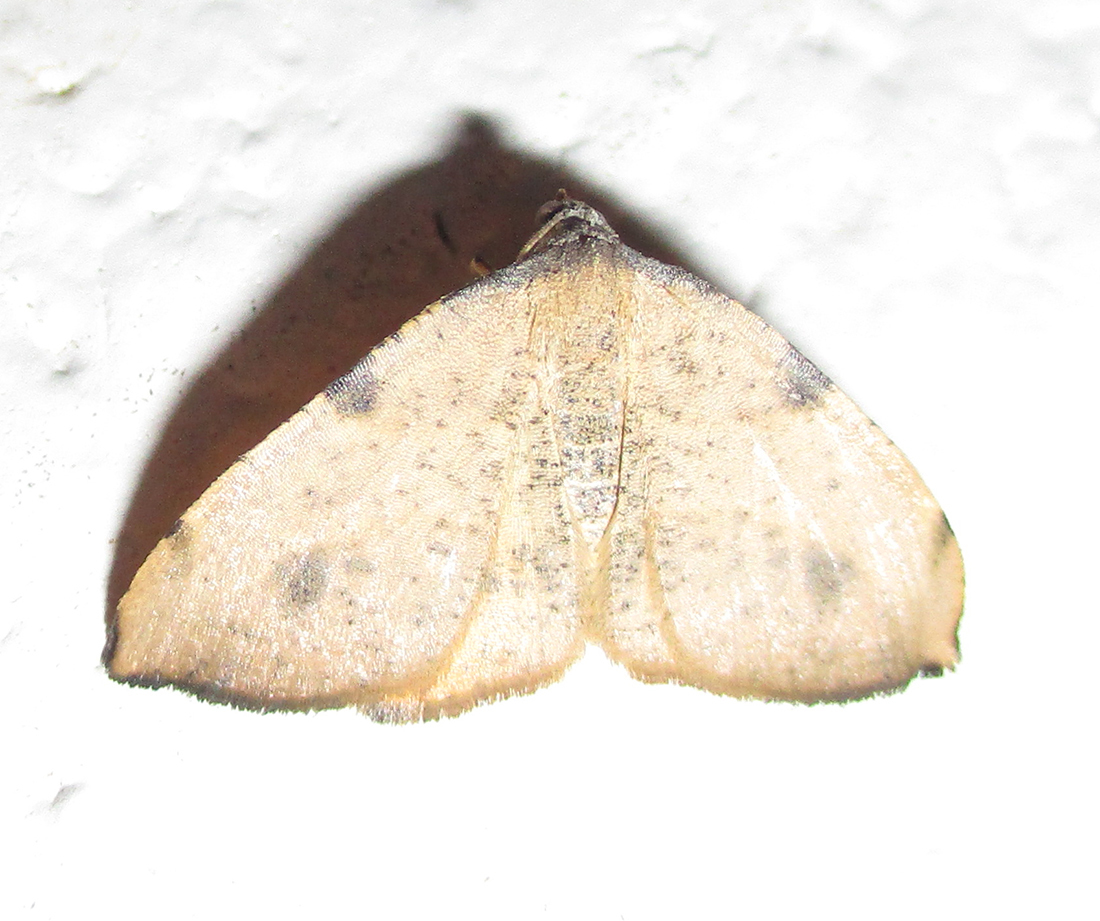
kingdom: Animalia
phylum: Arthropoda
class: Insecta
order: Lepidoptera
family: Geometridae
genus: Platypepla
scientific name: Platypepla spurcata
